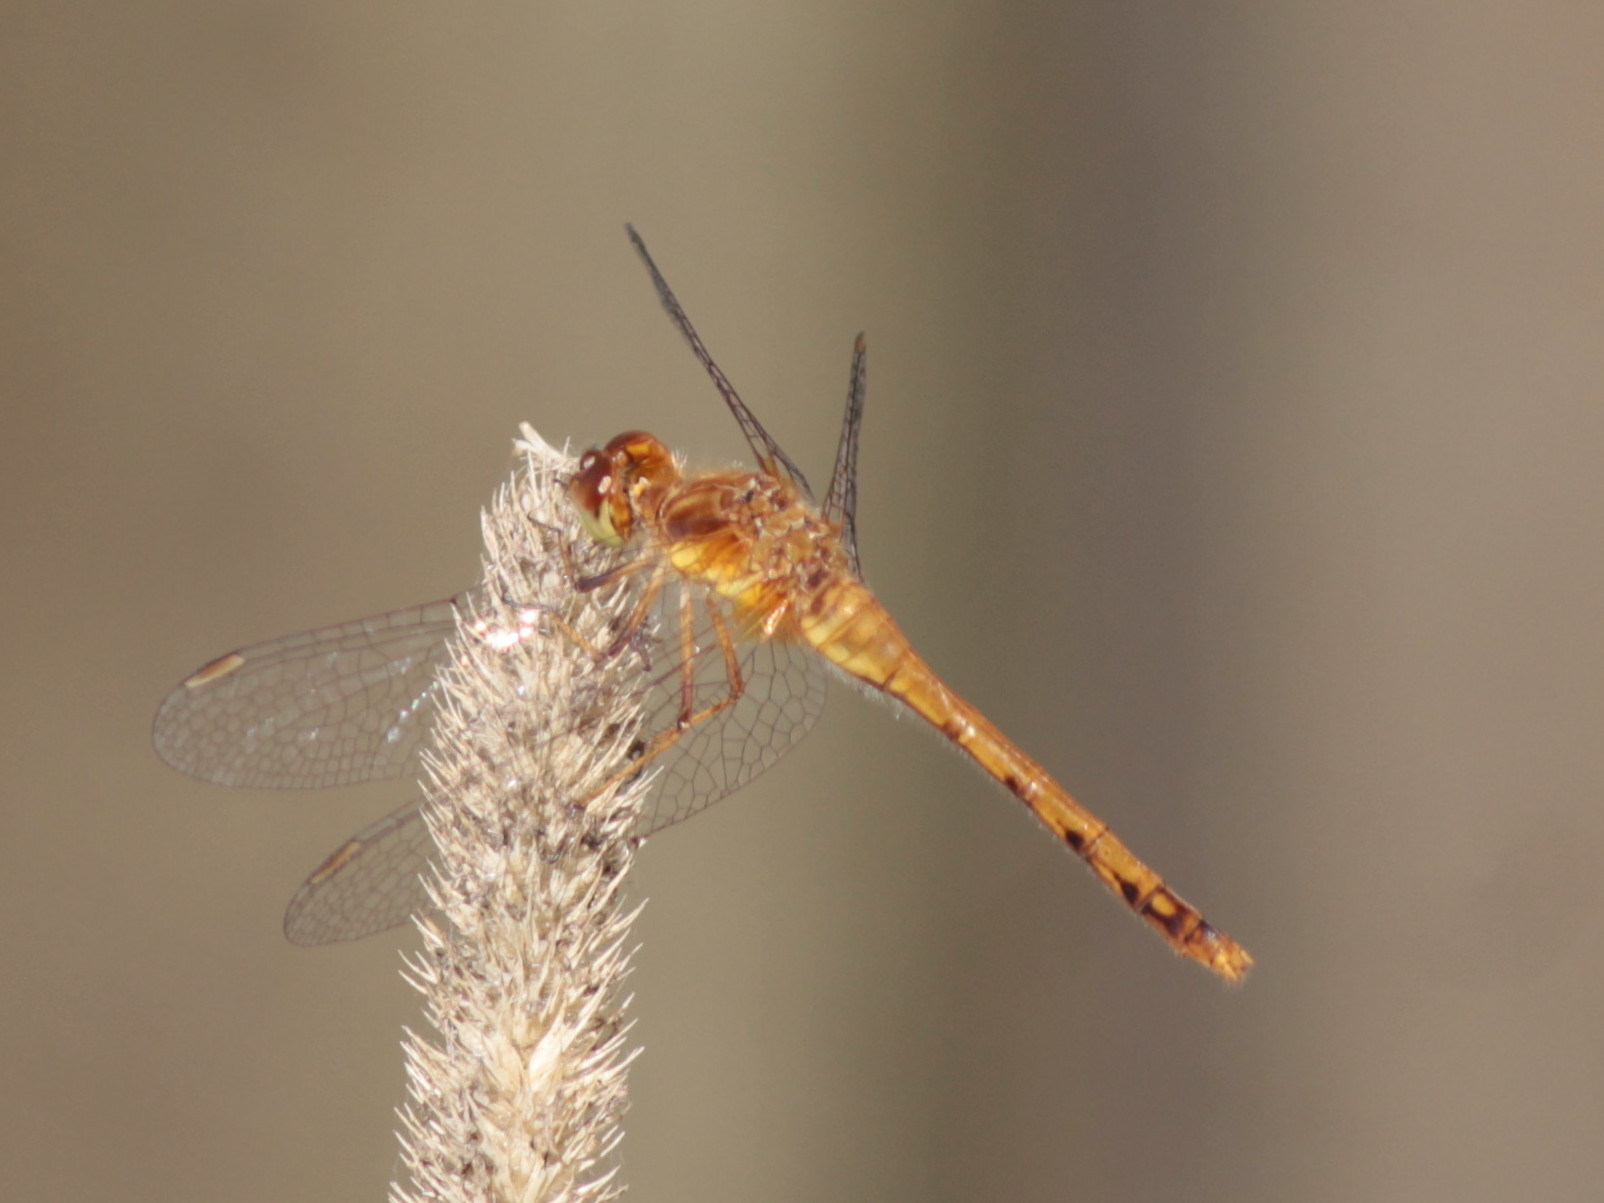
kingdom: Animalia
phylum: Arthropoda
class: Insecta
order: Odonata
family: Libellulidae
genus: Sympetrum
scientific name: Sympetrum vicinum
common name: Autumn meadowhawk
